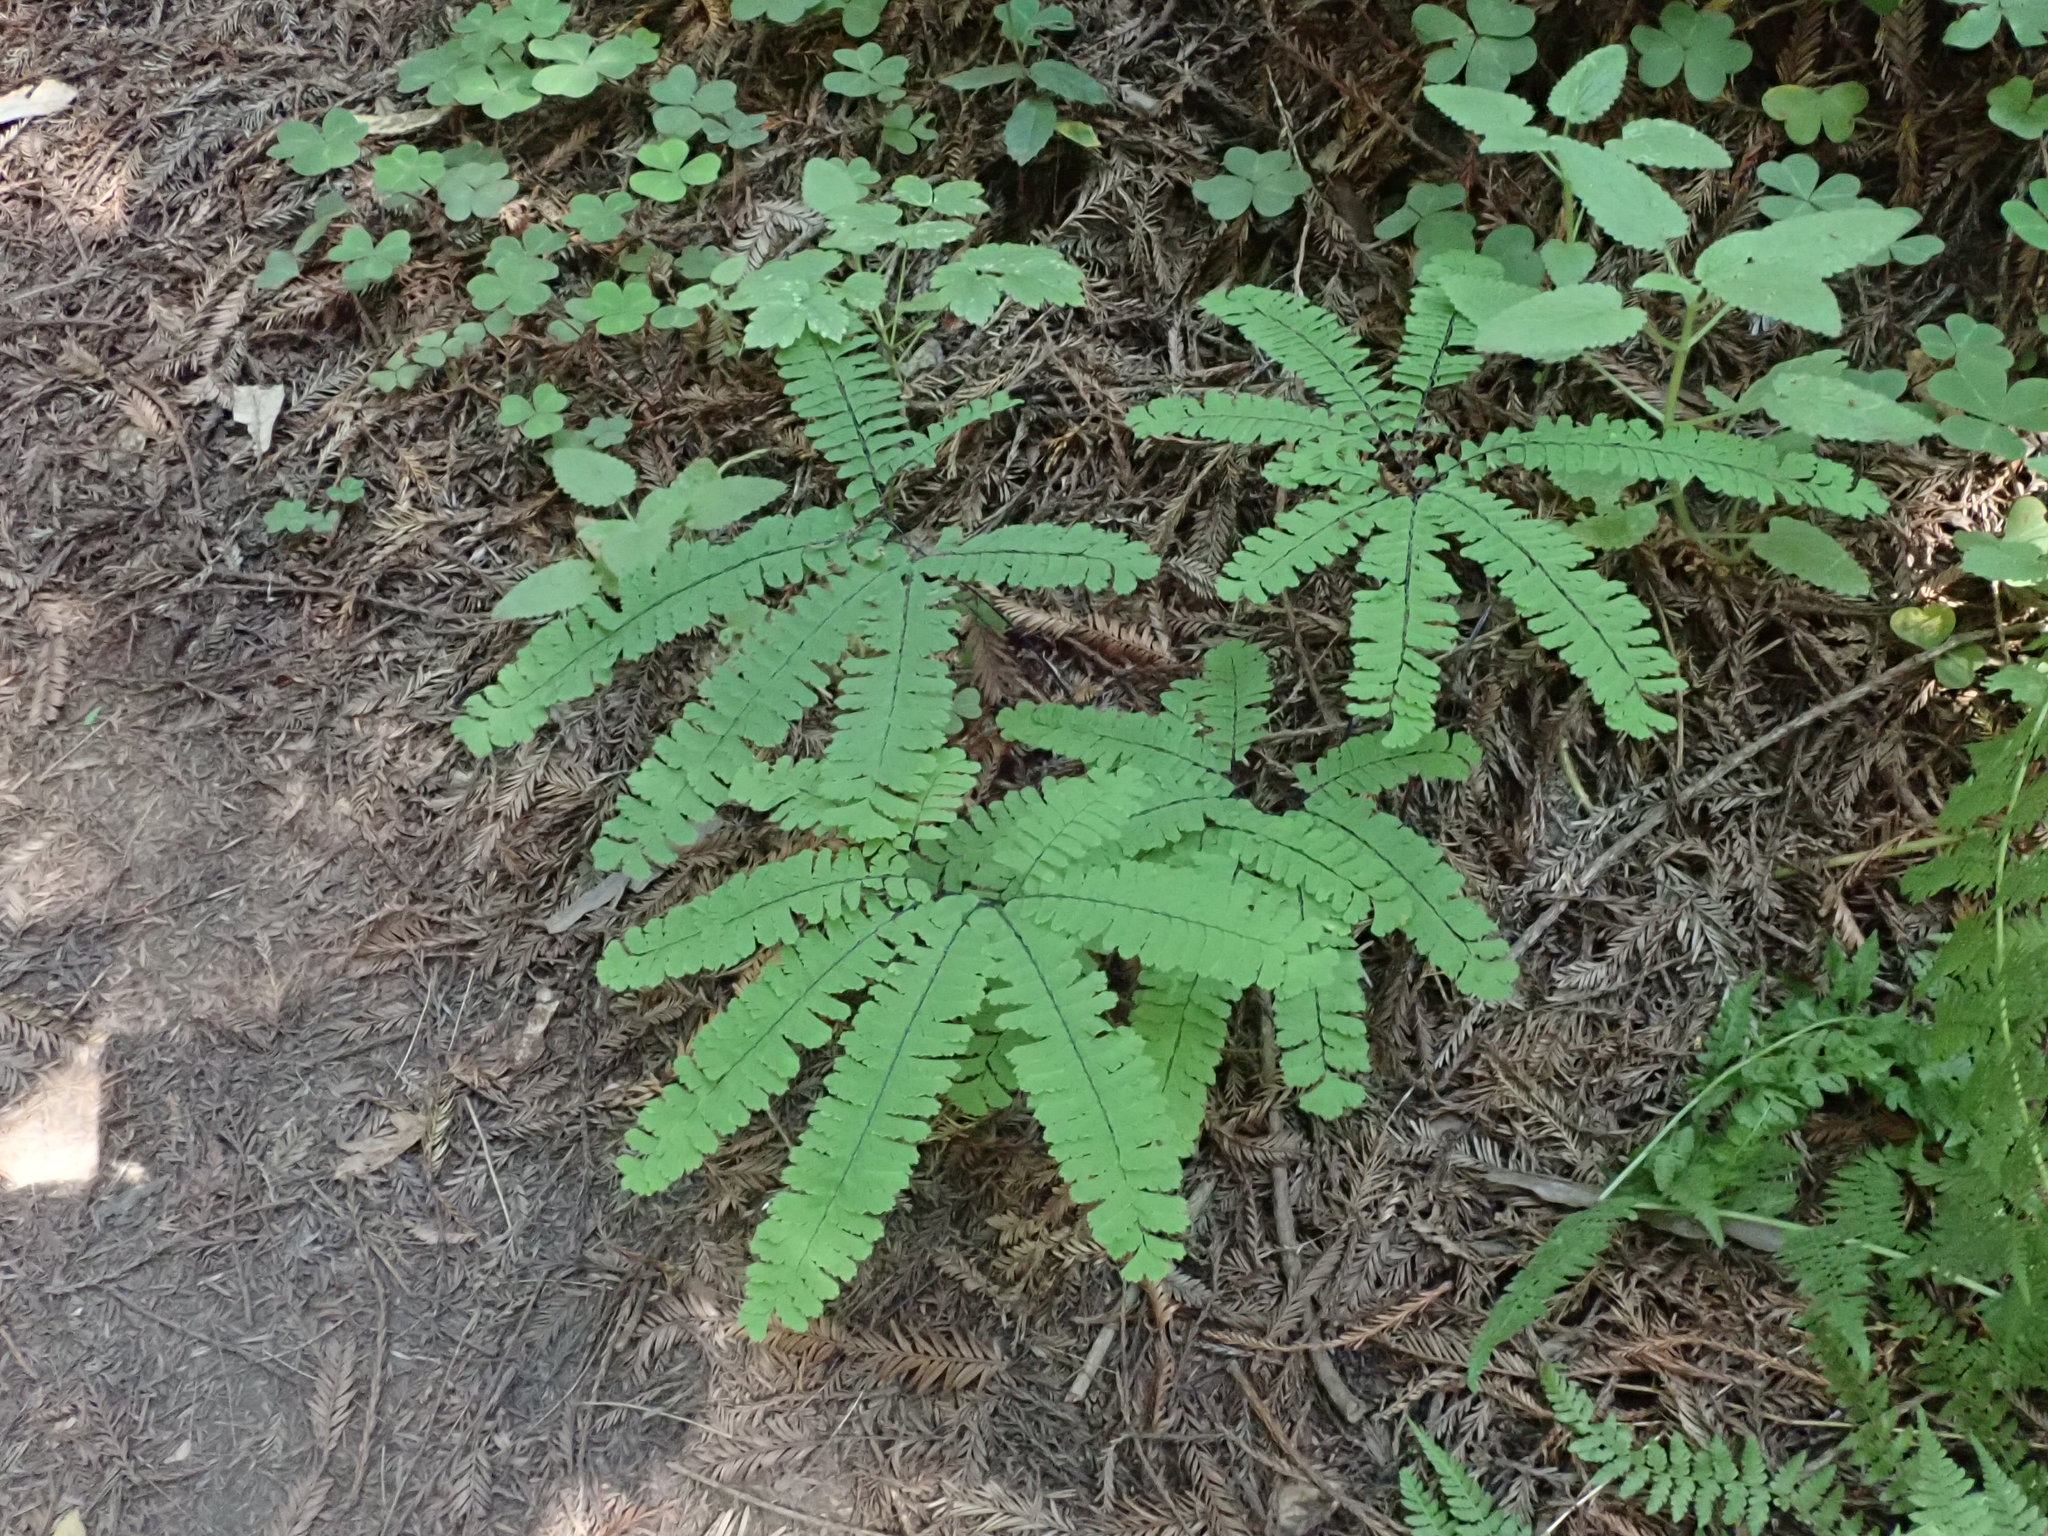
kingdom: Plantae
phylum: Tracheophyta
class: Polypodiopsida
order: Polypodiales
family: Pteridaceae
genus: Adiantum
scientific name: Adiantum aleuticum
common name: Aleutian maidenhair fern
